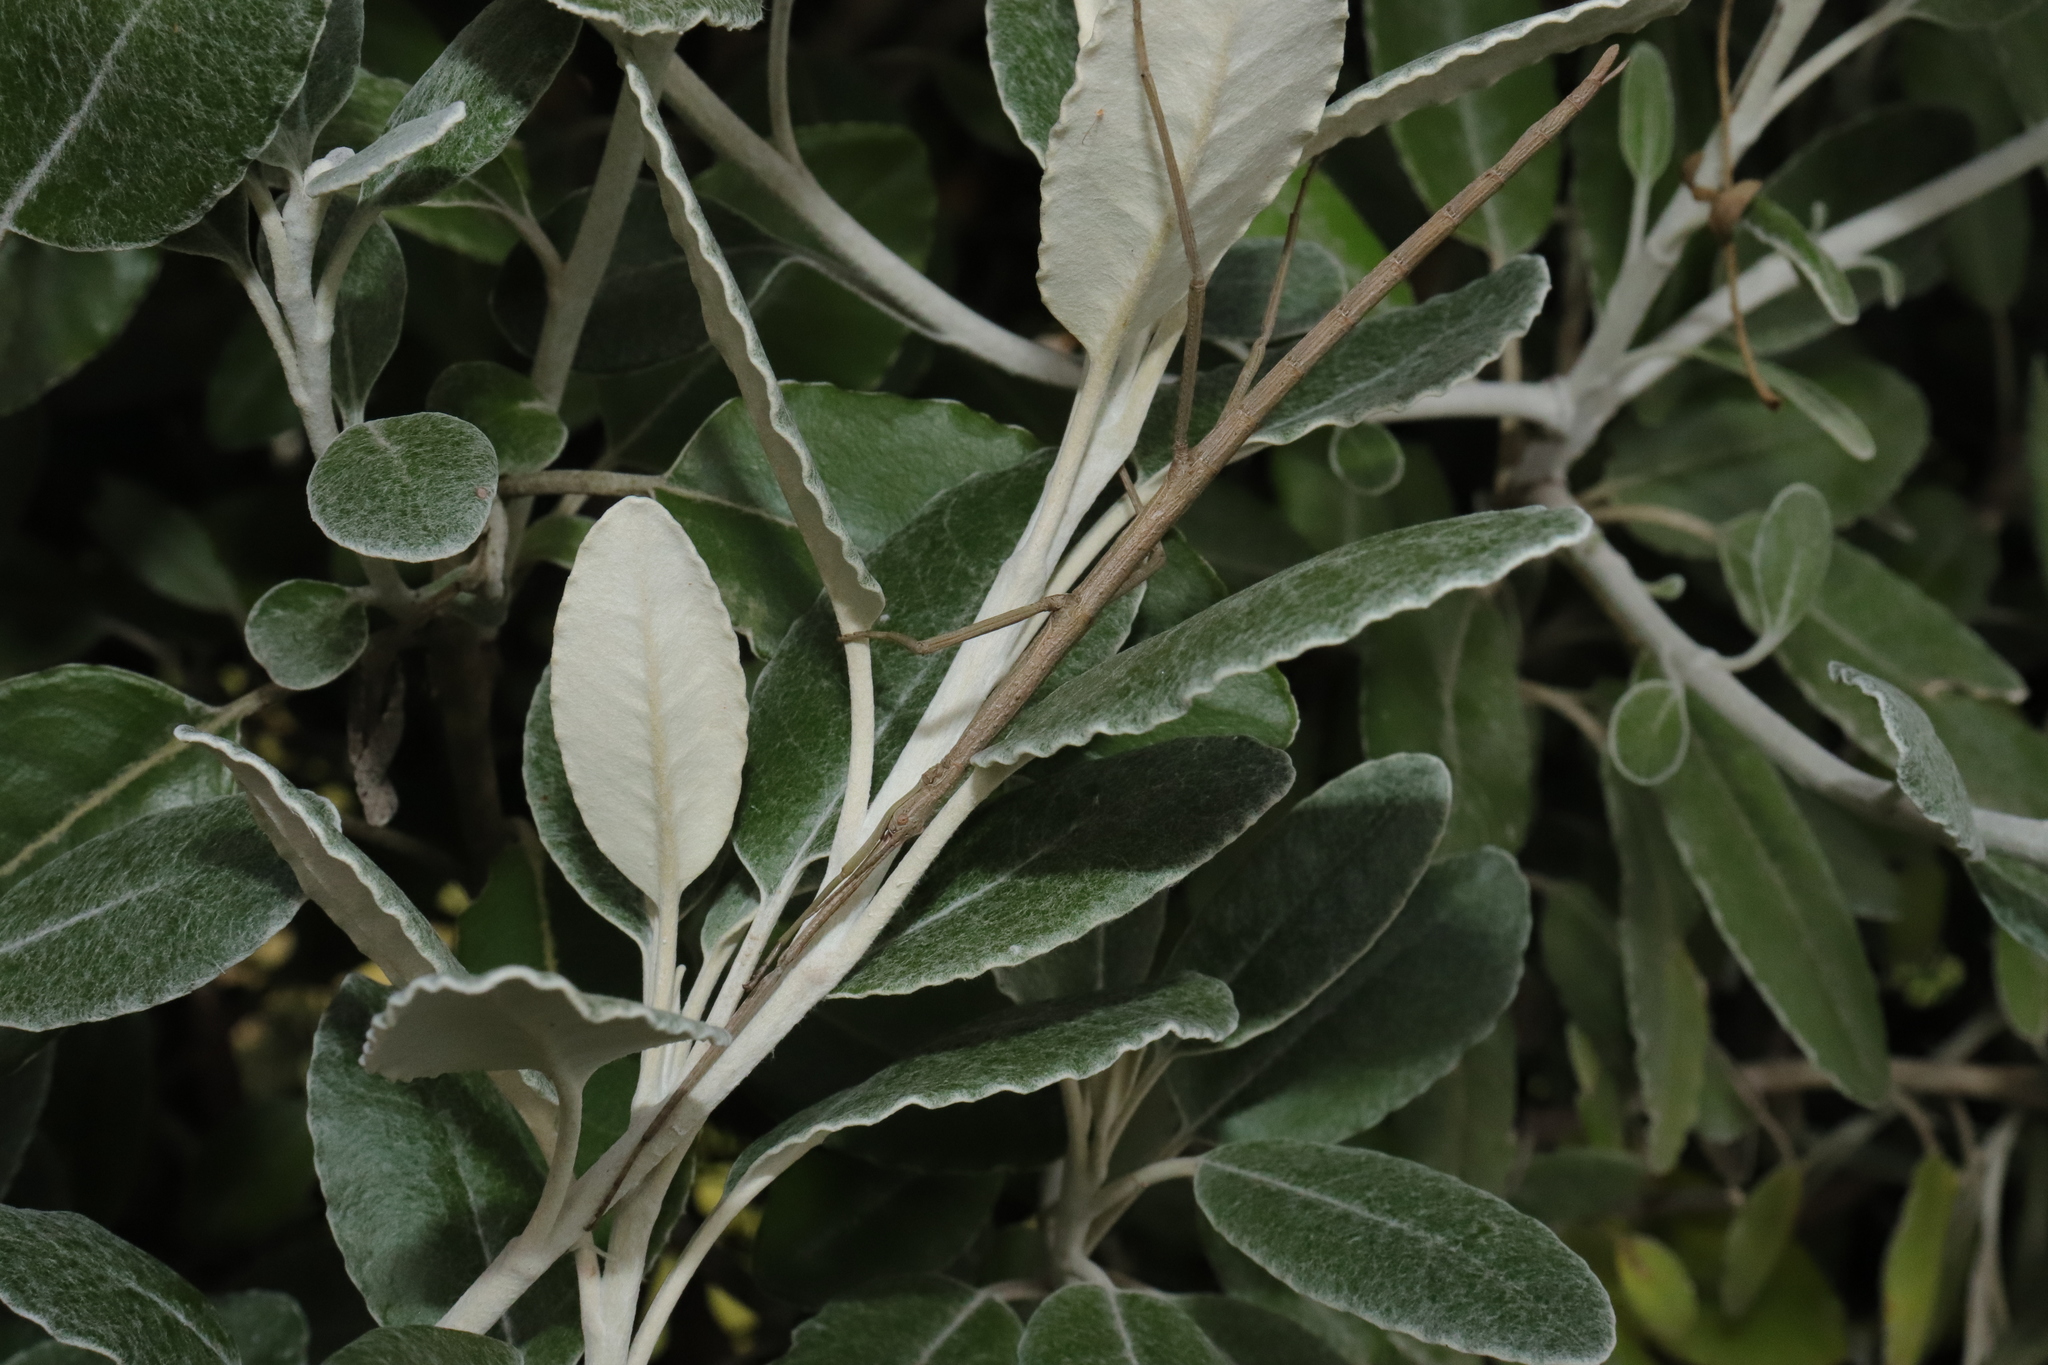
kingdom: Animalia
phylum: Arthropoda
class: Insecta
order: Phasmida
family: Phasmatidae
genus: Clitarchus
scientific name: Clitarchus hookeri
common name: Smooth stick insect
